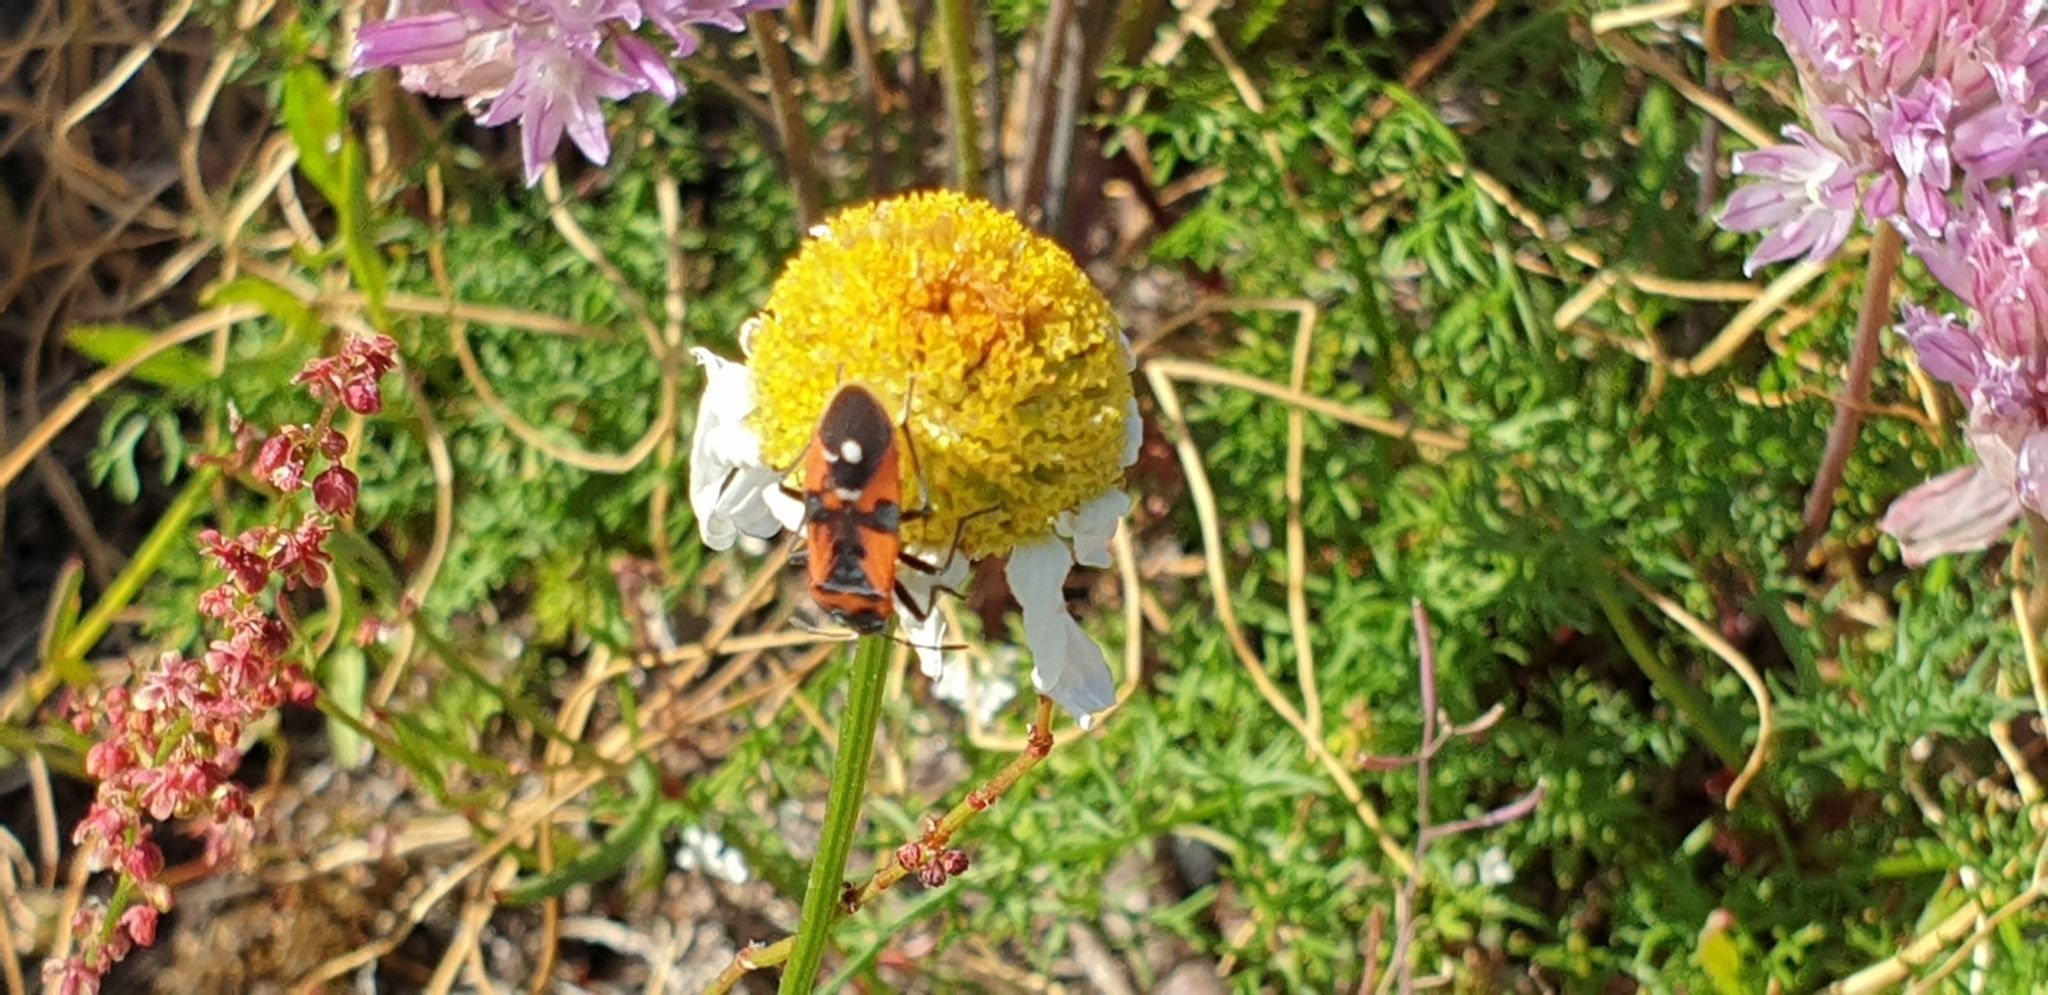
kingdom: Animalia
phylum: Arthropoda
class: Insecta
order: Hemiptera
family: Lygaeidae
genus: Lygaeus
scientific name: Lygaeus equestris
